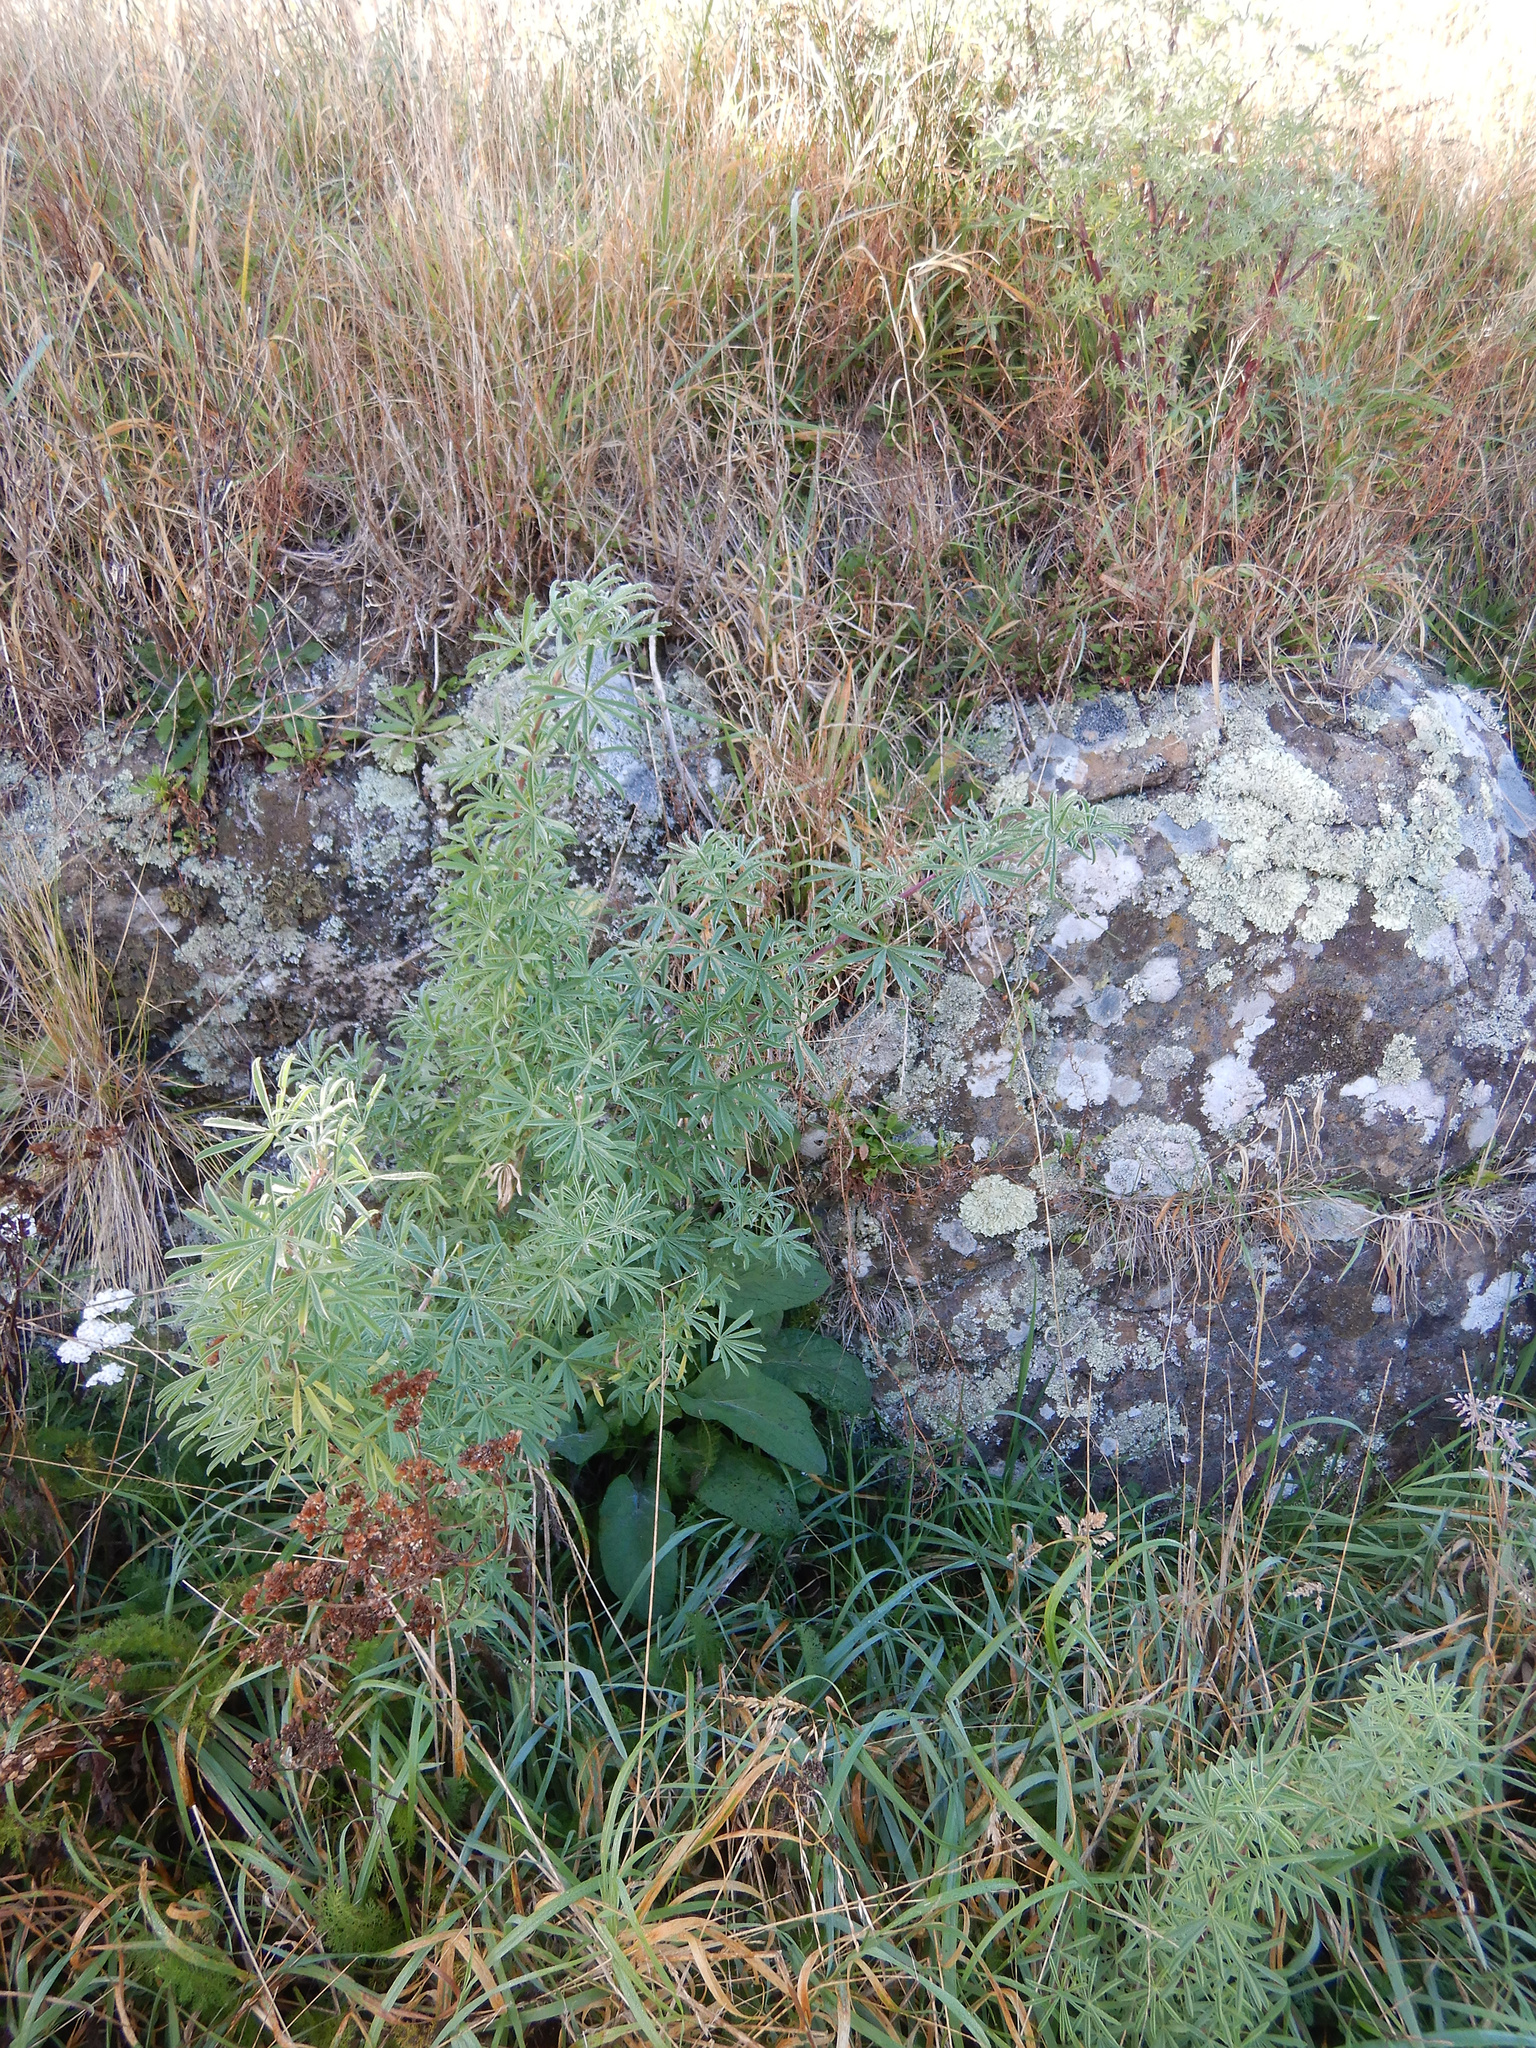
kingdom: Plantae
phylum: Tracheophyta
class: Magnoliopsida
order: Fabales
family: Fabaceae
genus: Lupinus
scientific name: Lupinus arboreus
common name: Yellow bush lupine
